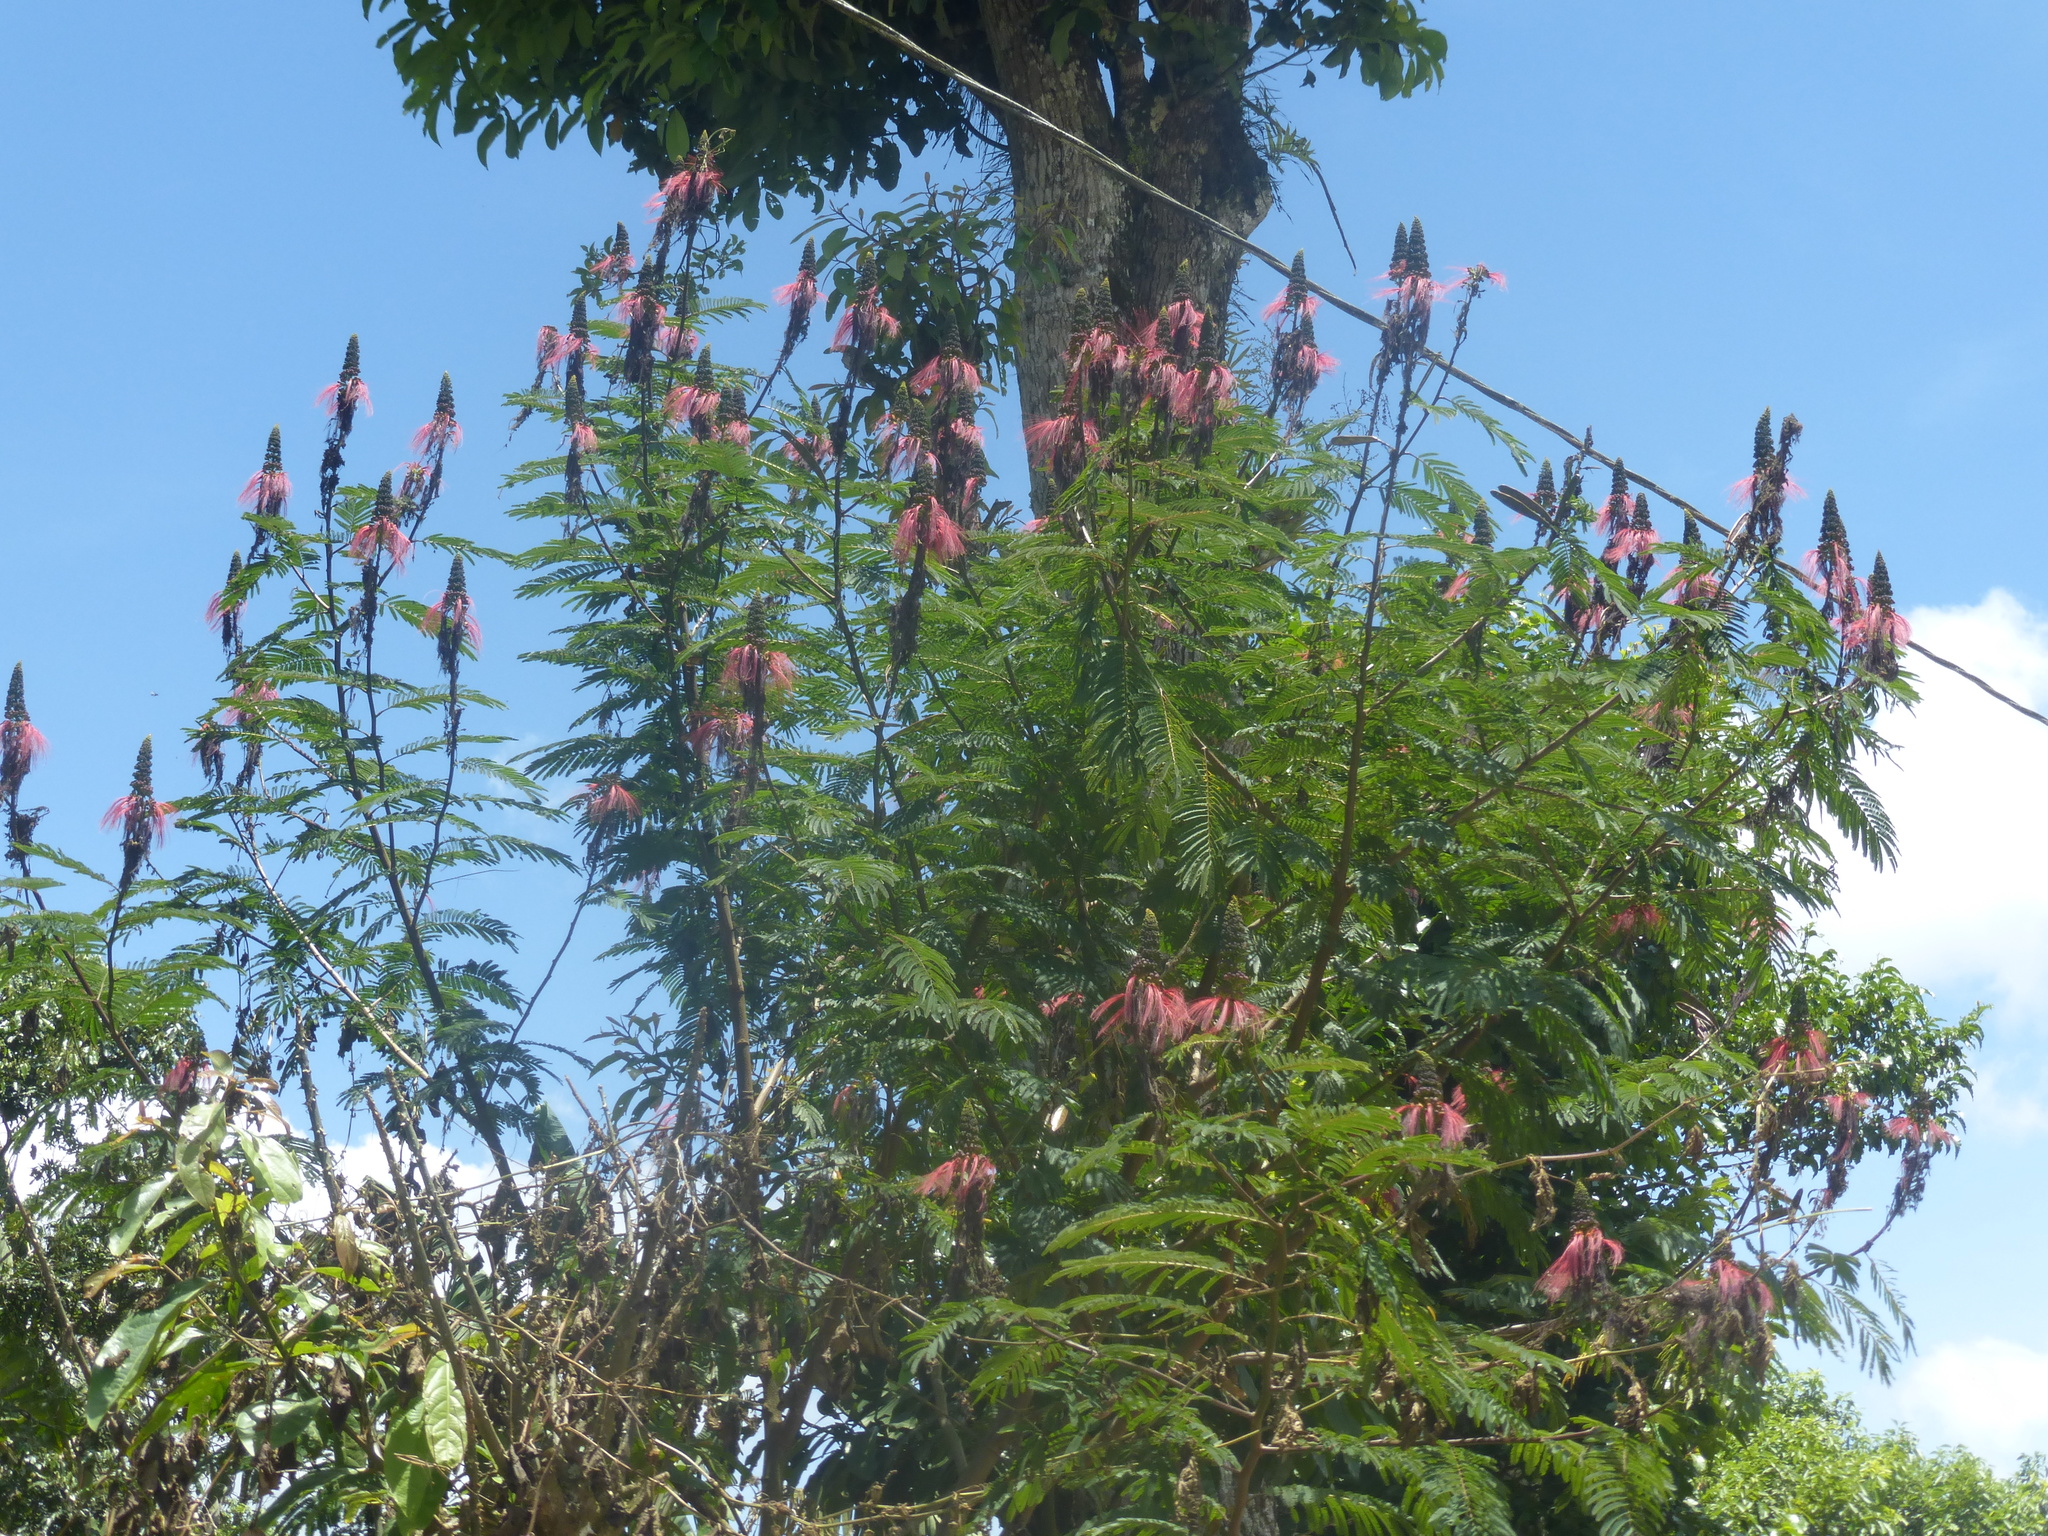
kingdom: Plantae
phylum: Tracheophyta
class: Magnoliopsida
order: Fabales
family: Fabaceae
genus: Calliandra
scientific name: Calliandra houstoniana
